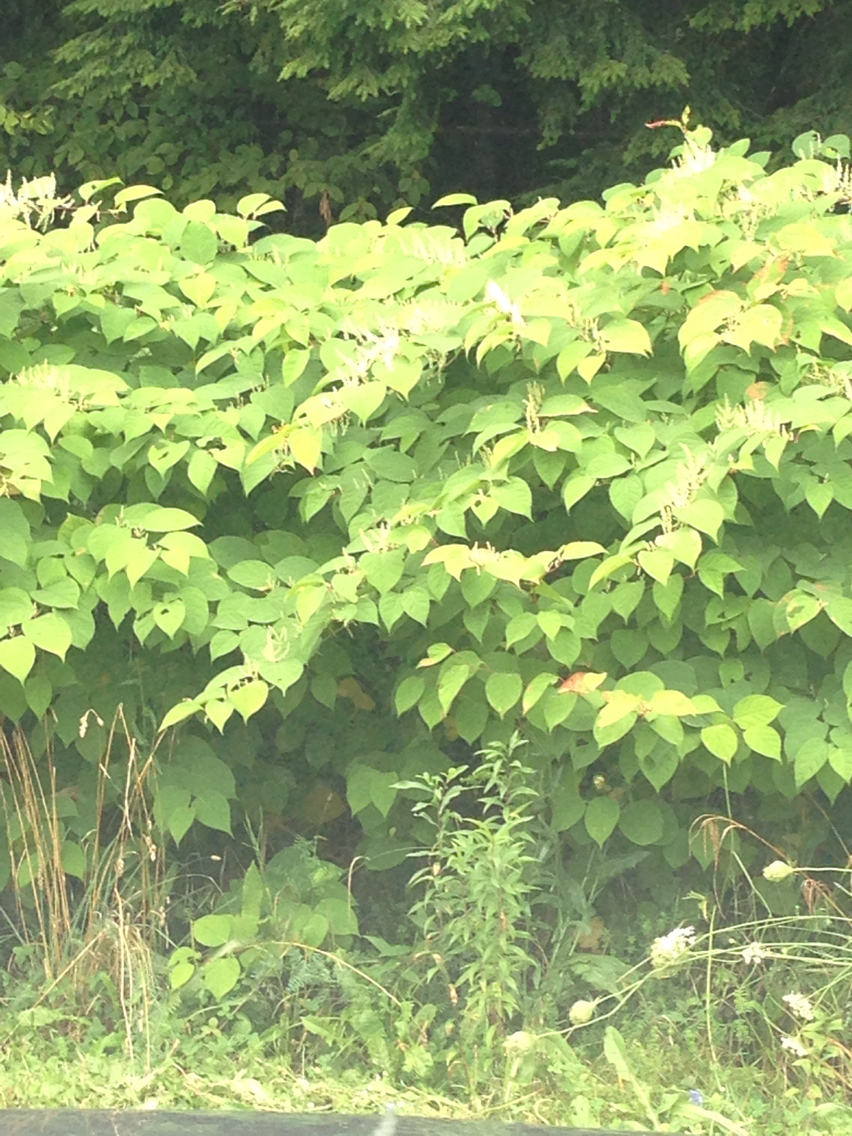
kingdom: Plantae
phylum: Tracheophyta
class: Magnoliopsida
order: Caryophyllales
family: Polygonaceae
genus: Reynoutria
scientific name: Reynoutria japonica
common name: Japanese knotweed
